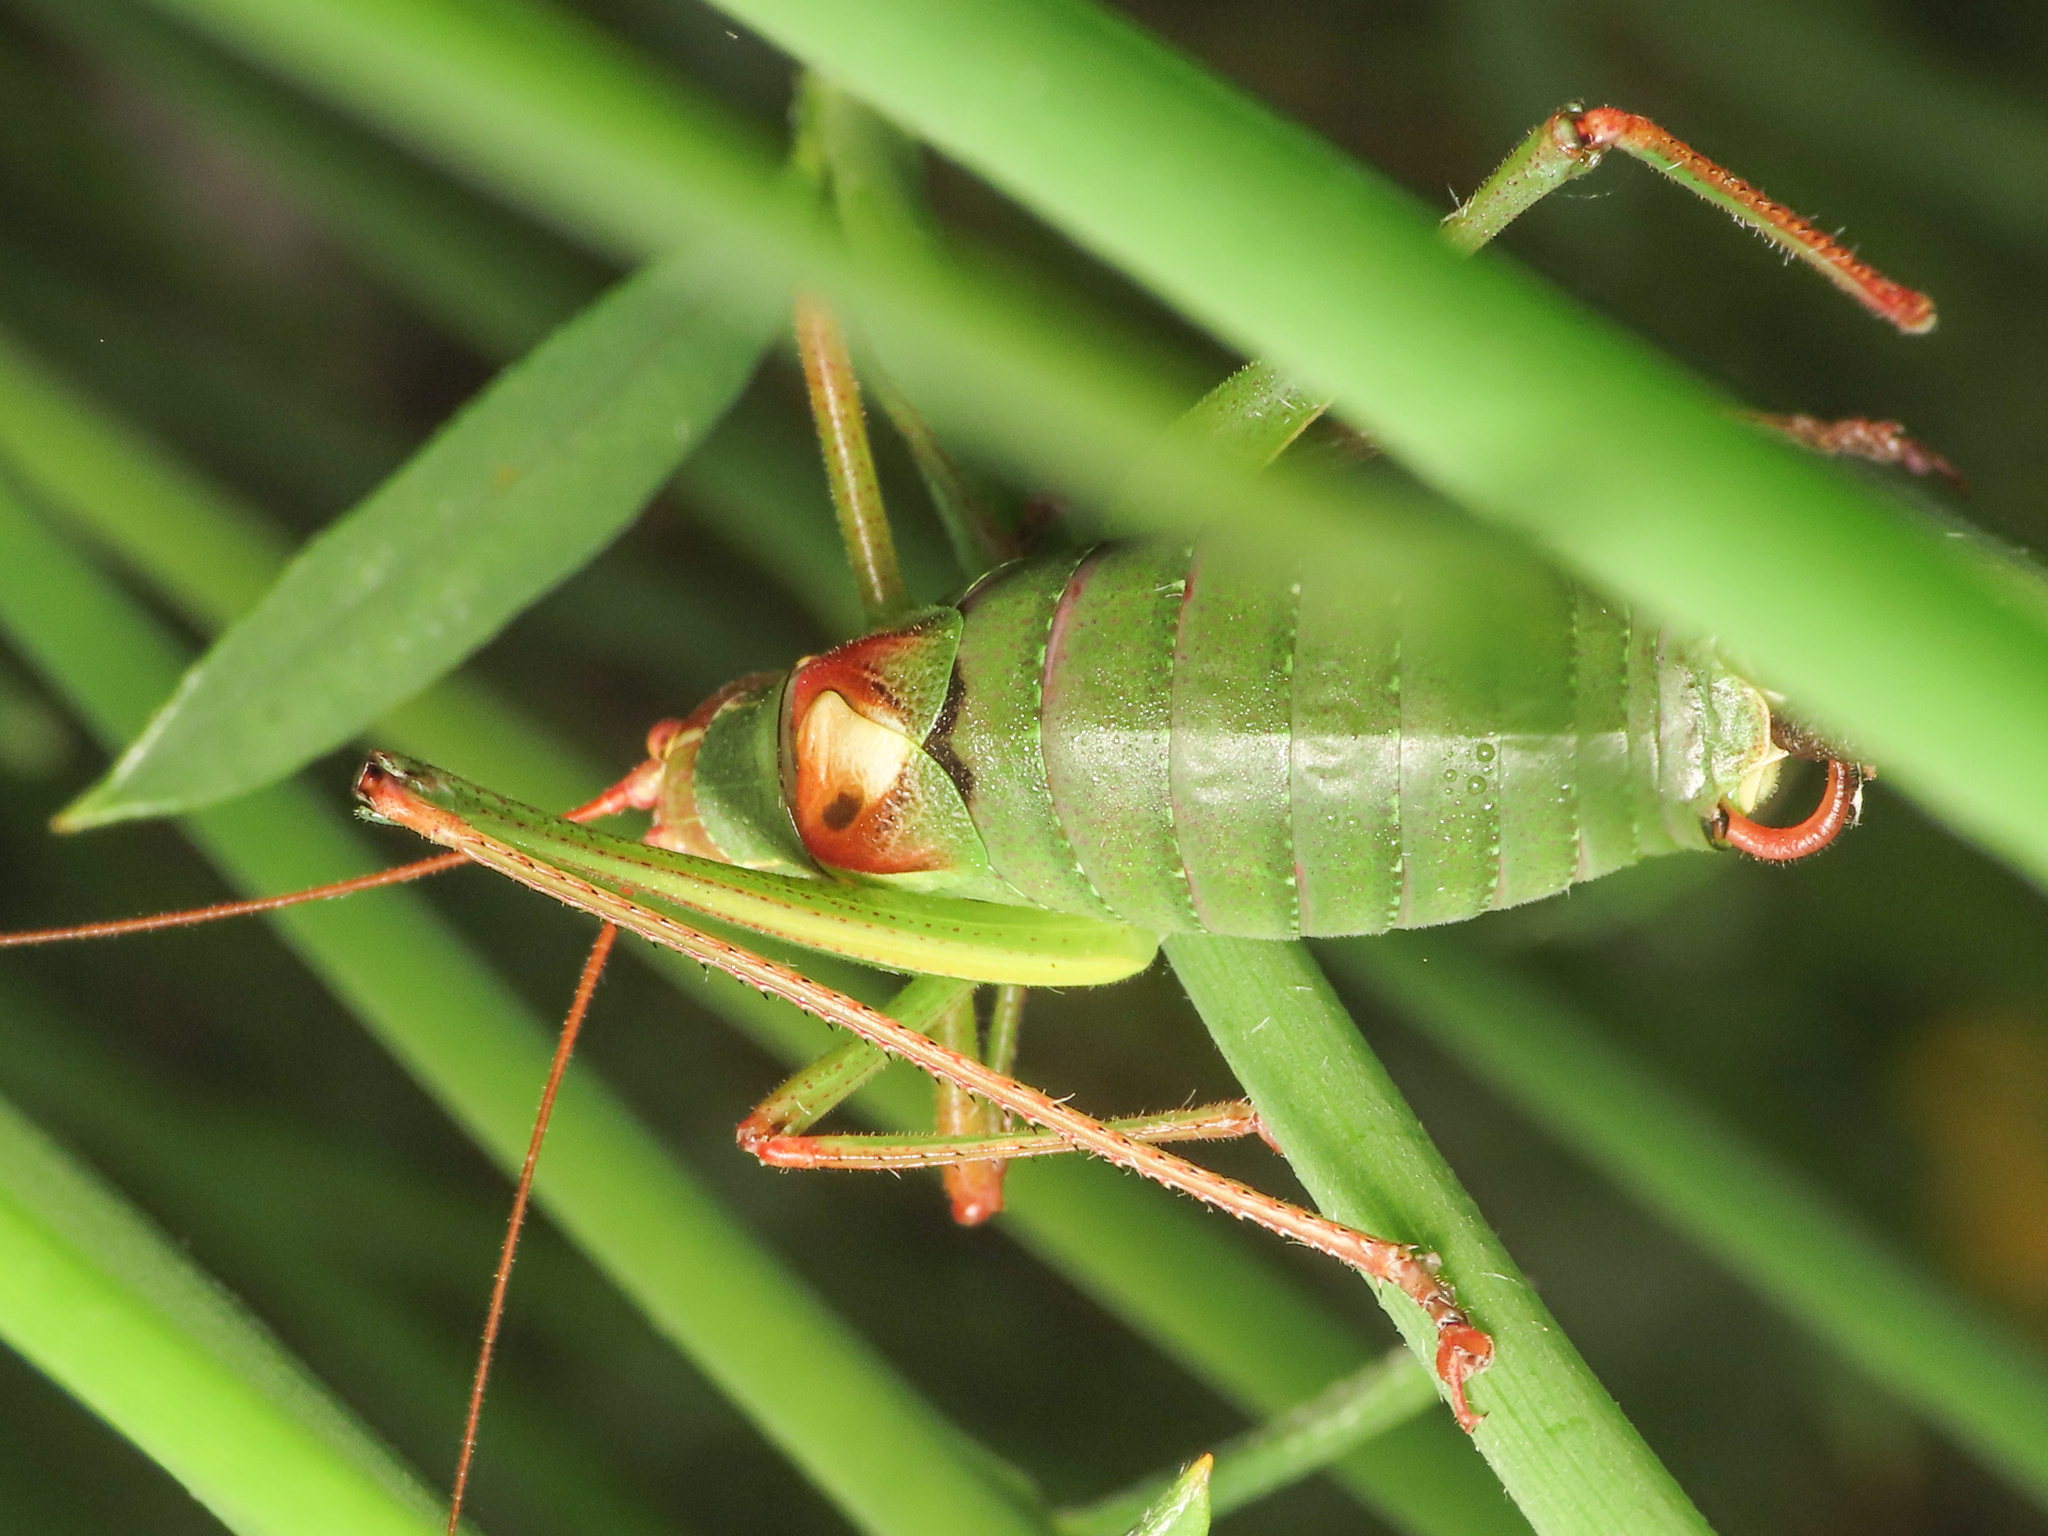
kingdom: Animalia
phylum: Arthropoda
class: Insecta
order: Orthoptera
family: Tettigoniidae
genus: Barbitistes
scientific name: Barbitistes yersini
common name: Balkan saw bush-cricket
